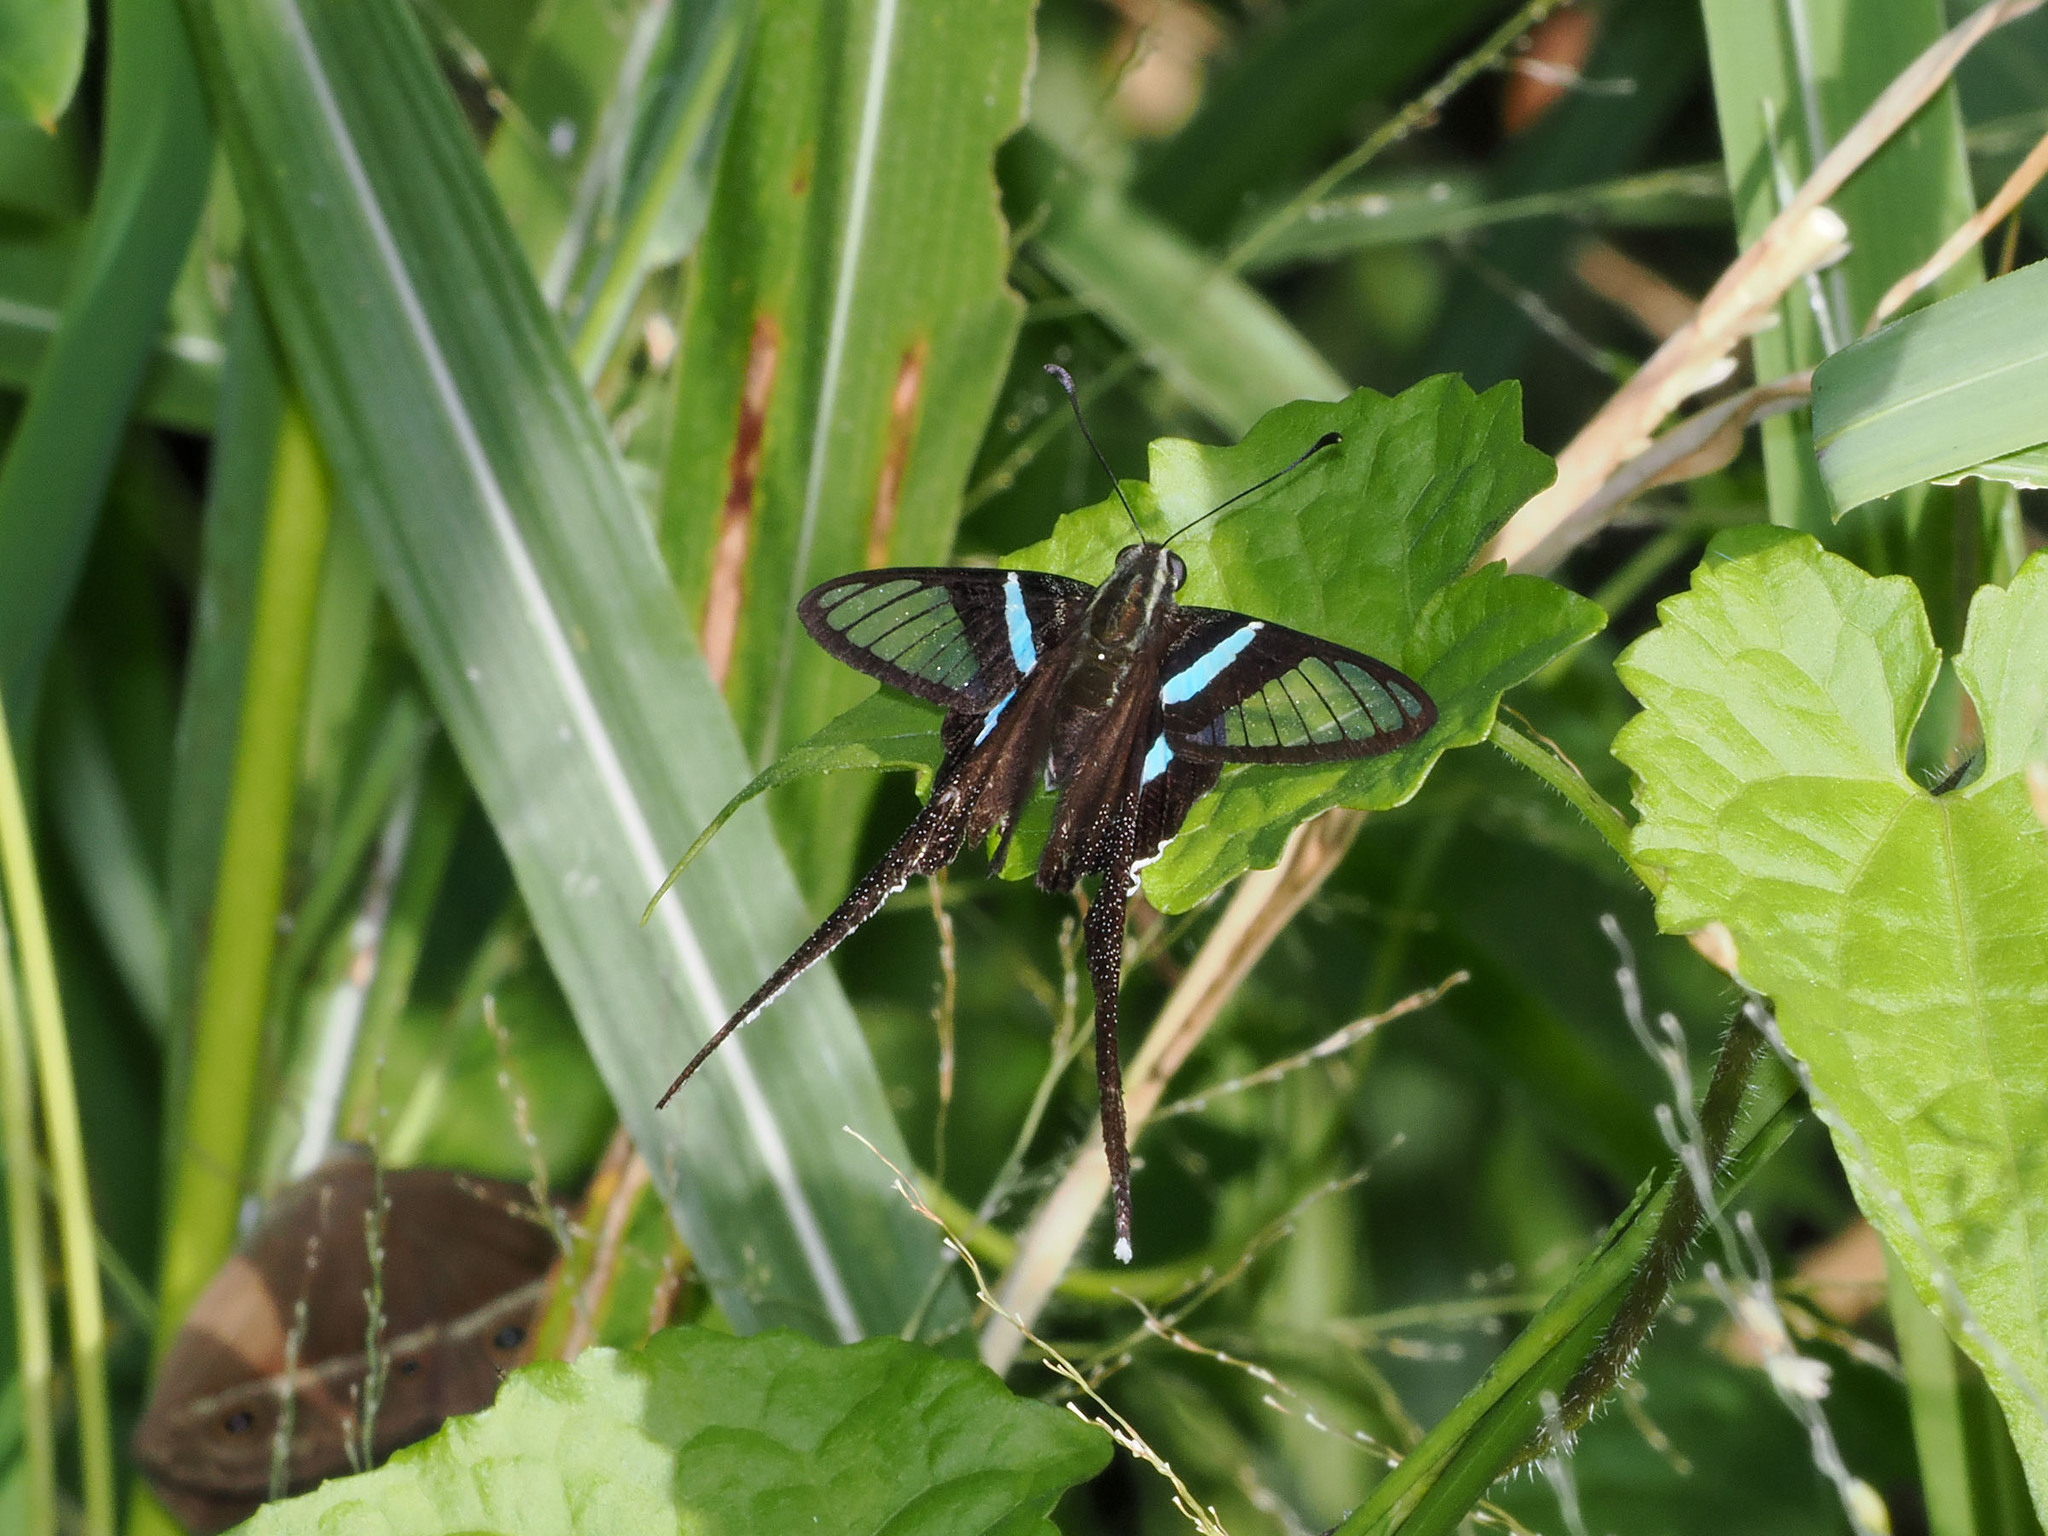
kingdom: Animalia
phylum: Arthropoda
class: Insecta
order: Lepidoptera
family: Papilionidae
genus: Lamproptera
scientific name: Lamproptera meges
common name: Green dragontail
